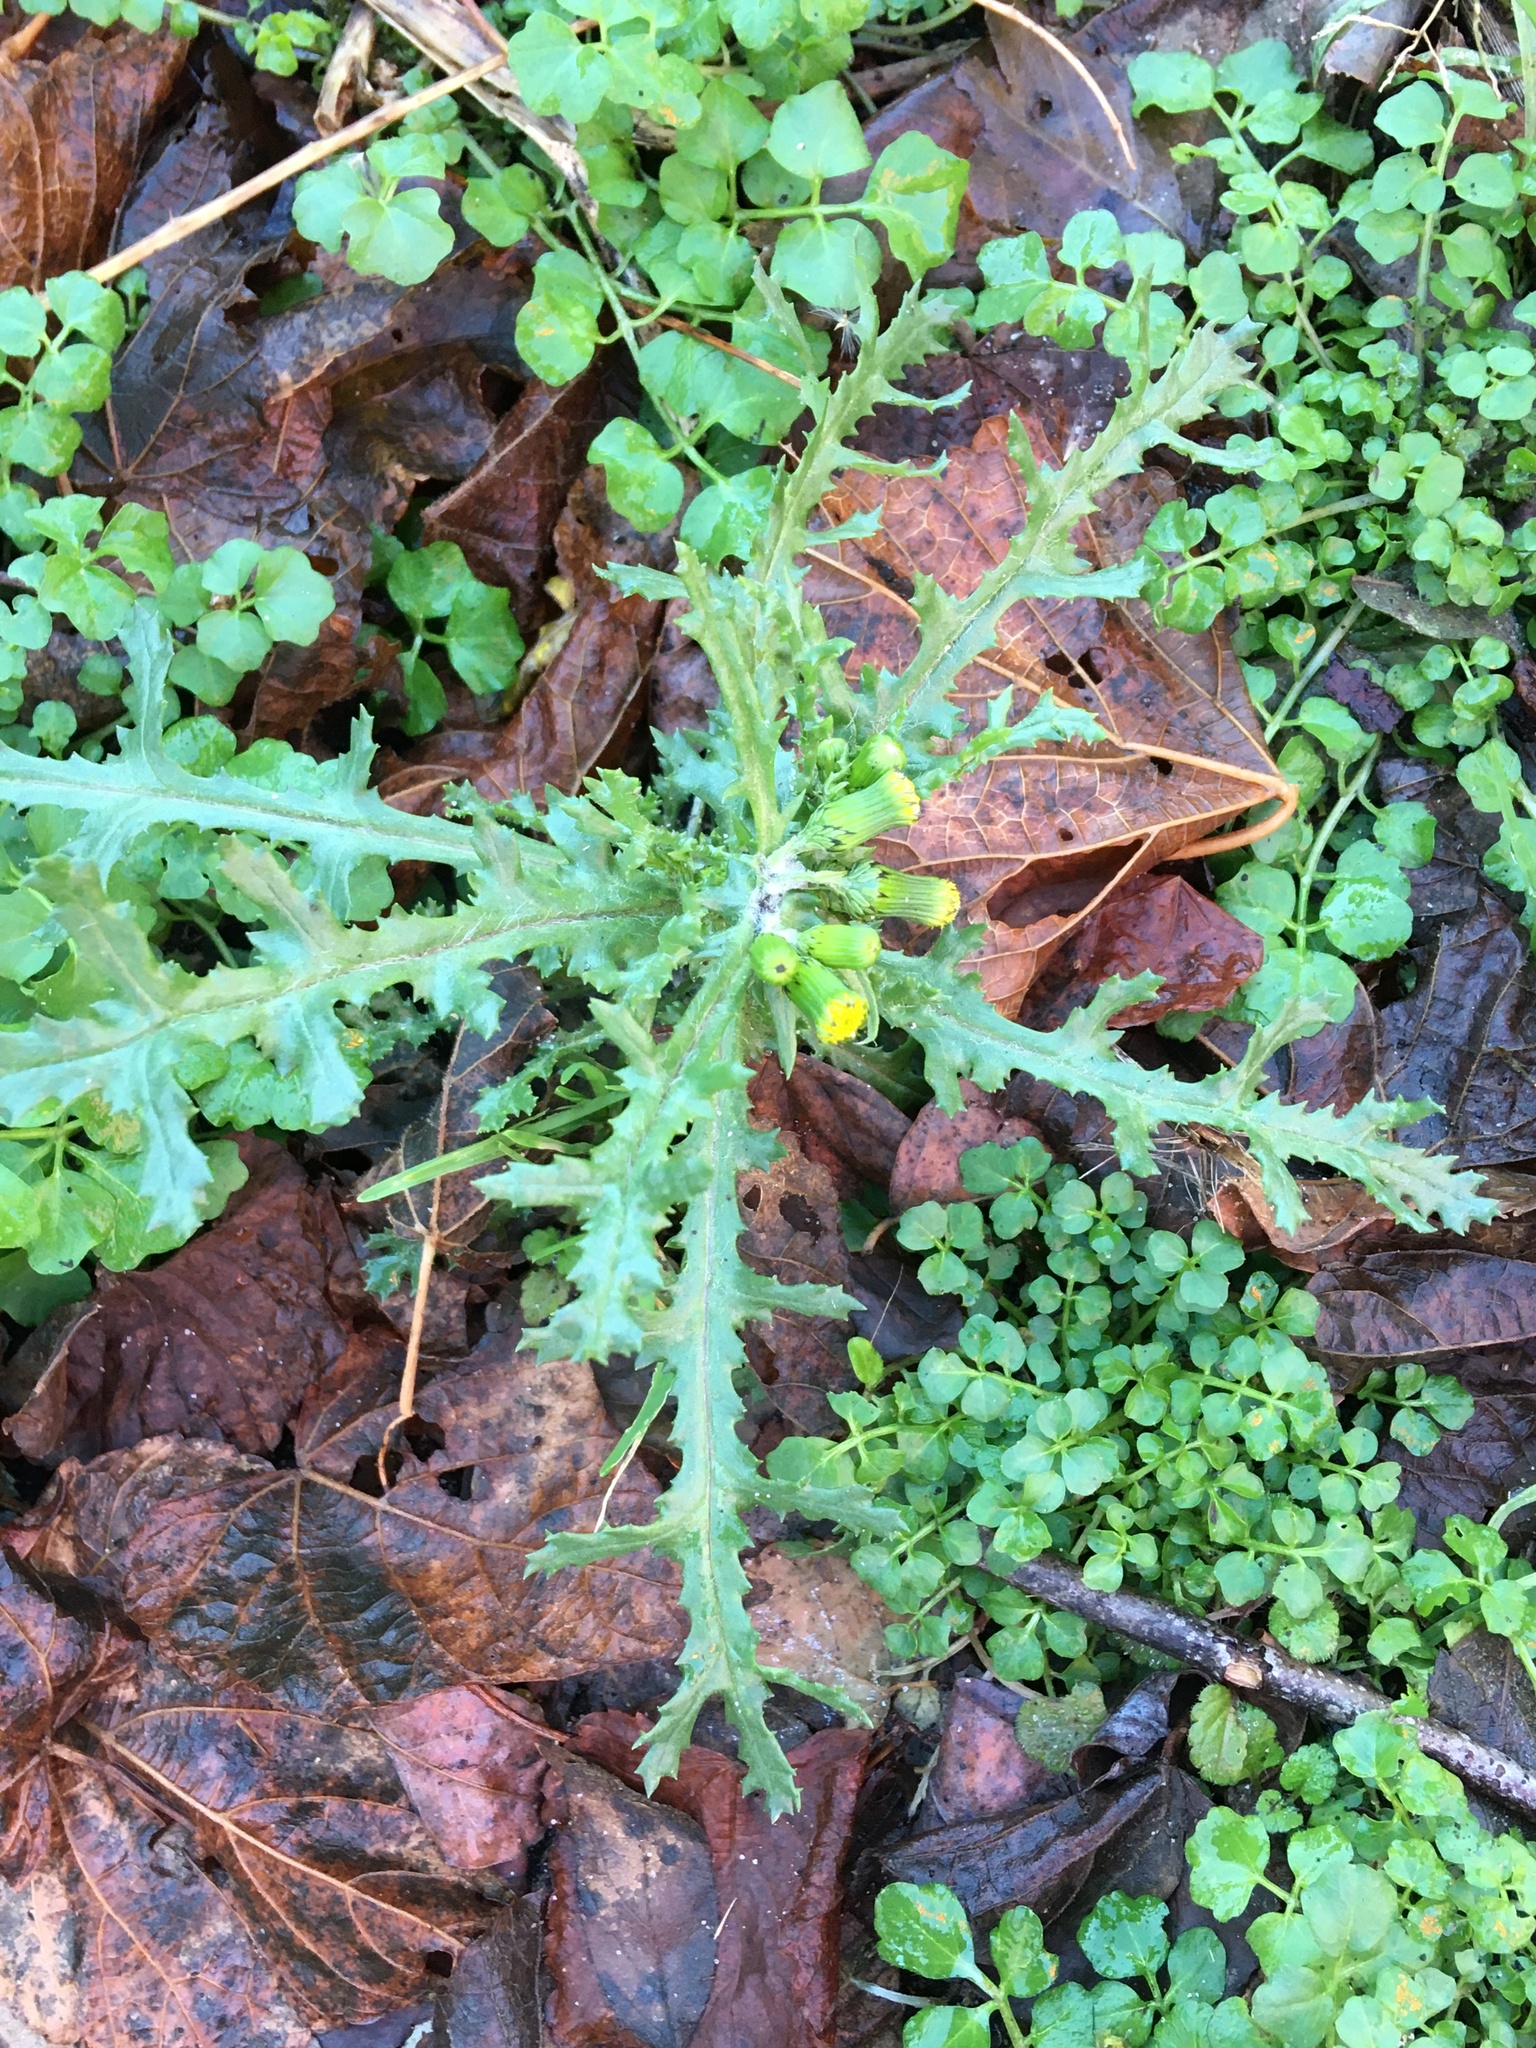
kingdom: Plantae
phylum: Tracheophyta
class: Magnoliopsida
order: Asterales
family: Asteraceae
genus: Senecio
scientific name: Senecio vulgaris
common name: Old-man-in-the-spring
